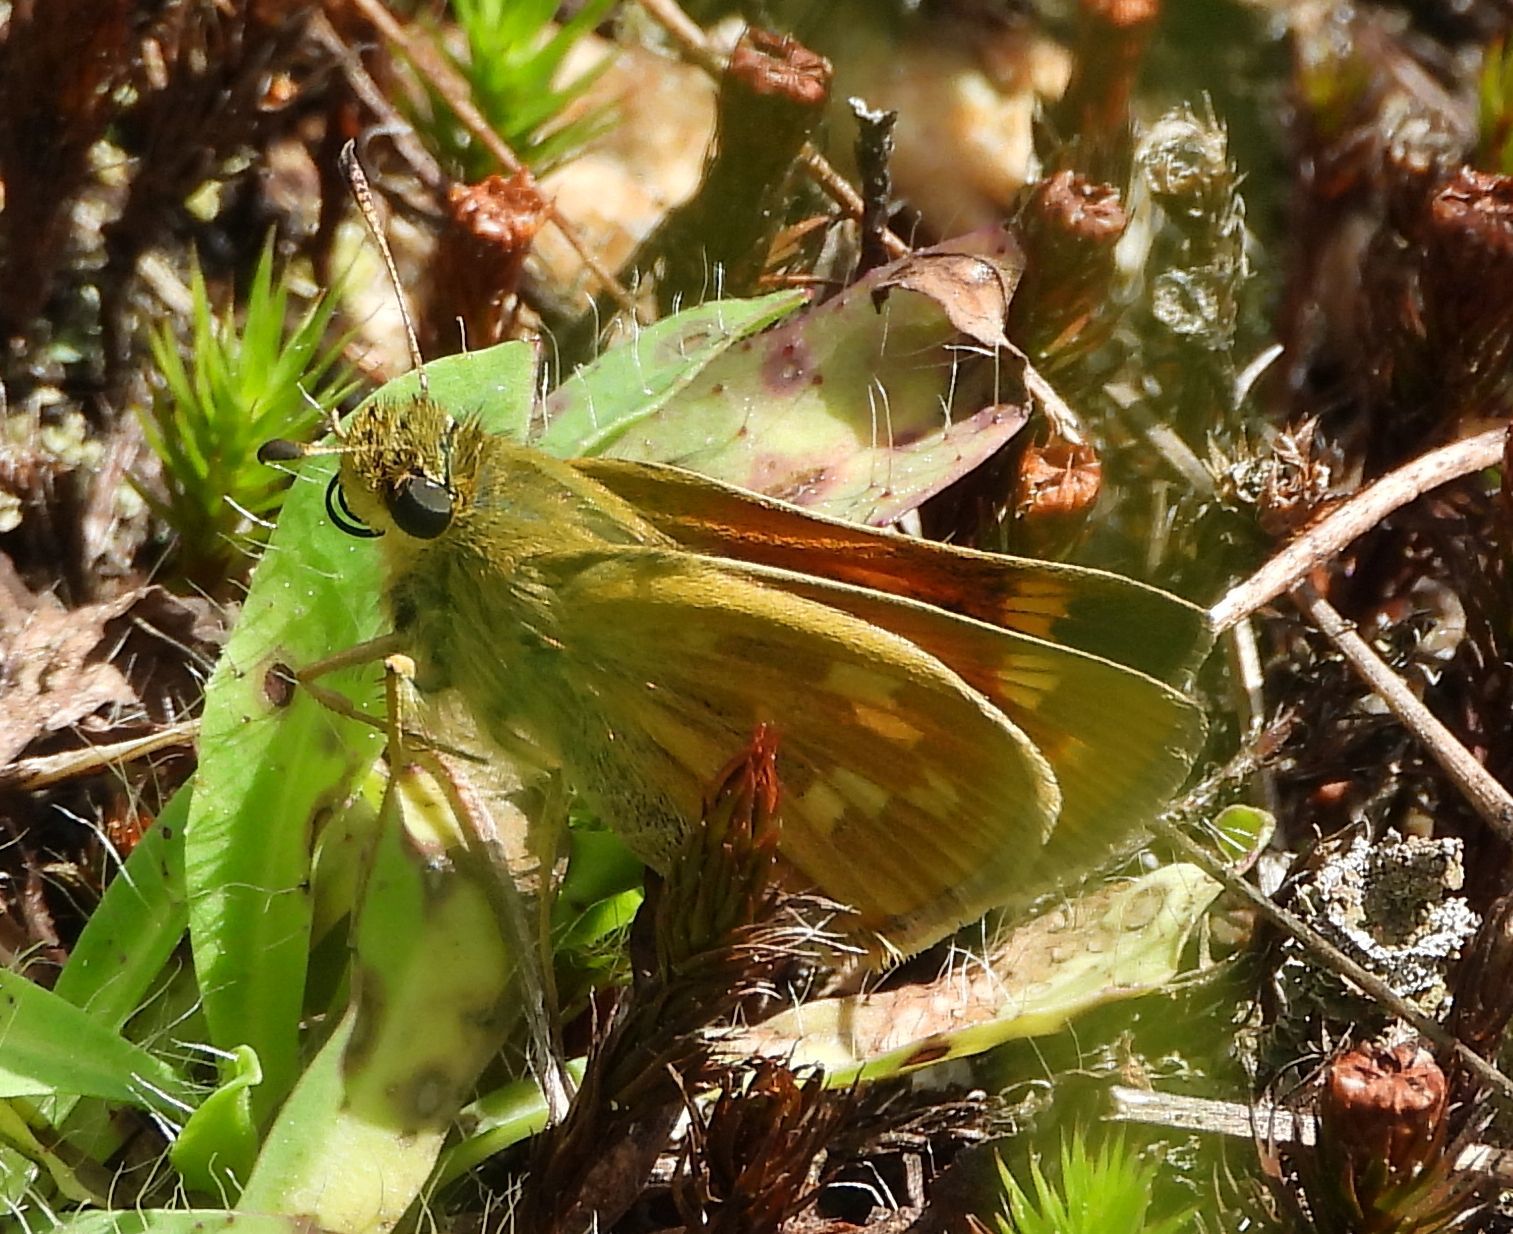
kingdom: Animalia
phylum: Arthropoda
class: Insecta
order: Lepidoptera
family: Hesperiidae
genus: Hesperia
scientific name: Hesperia sassacus
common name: Indian skipper
